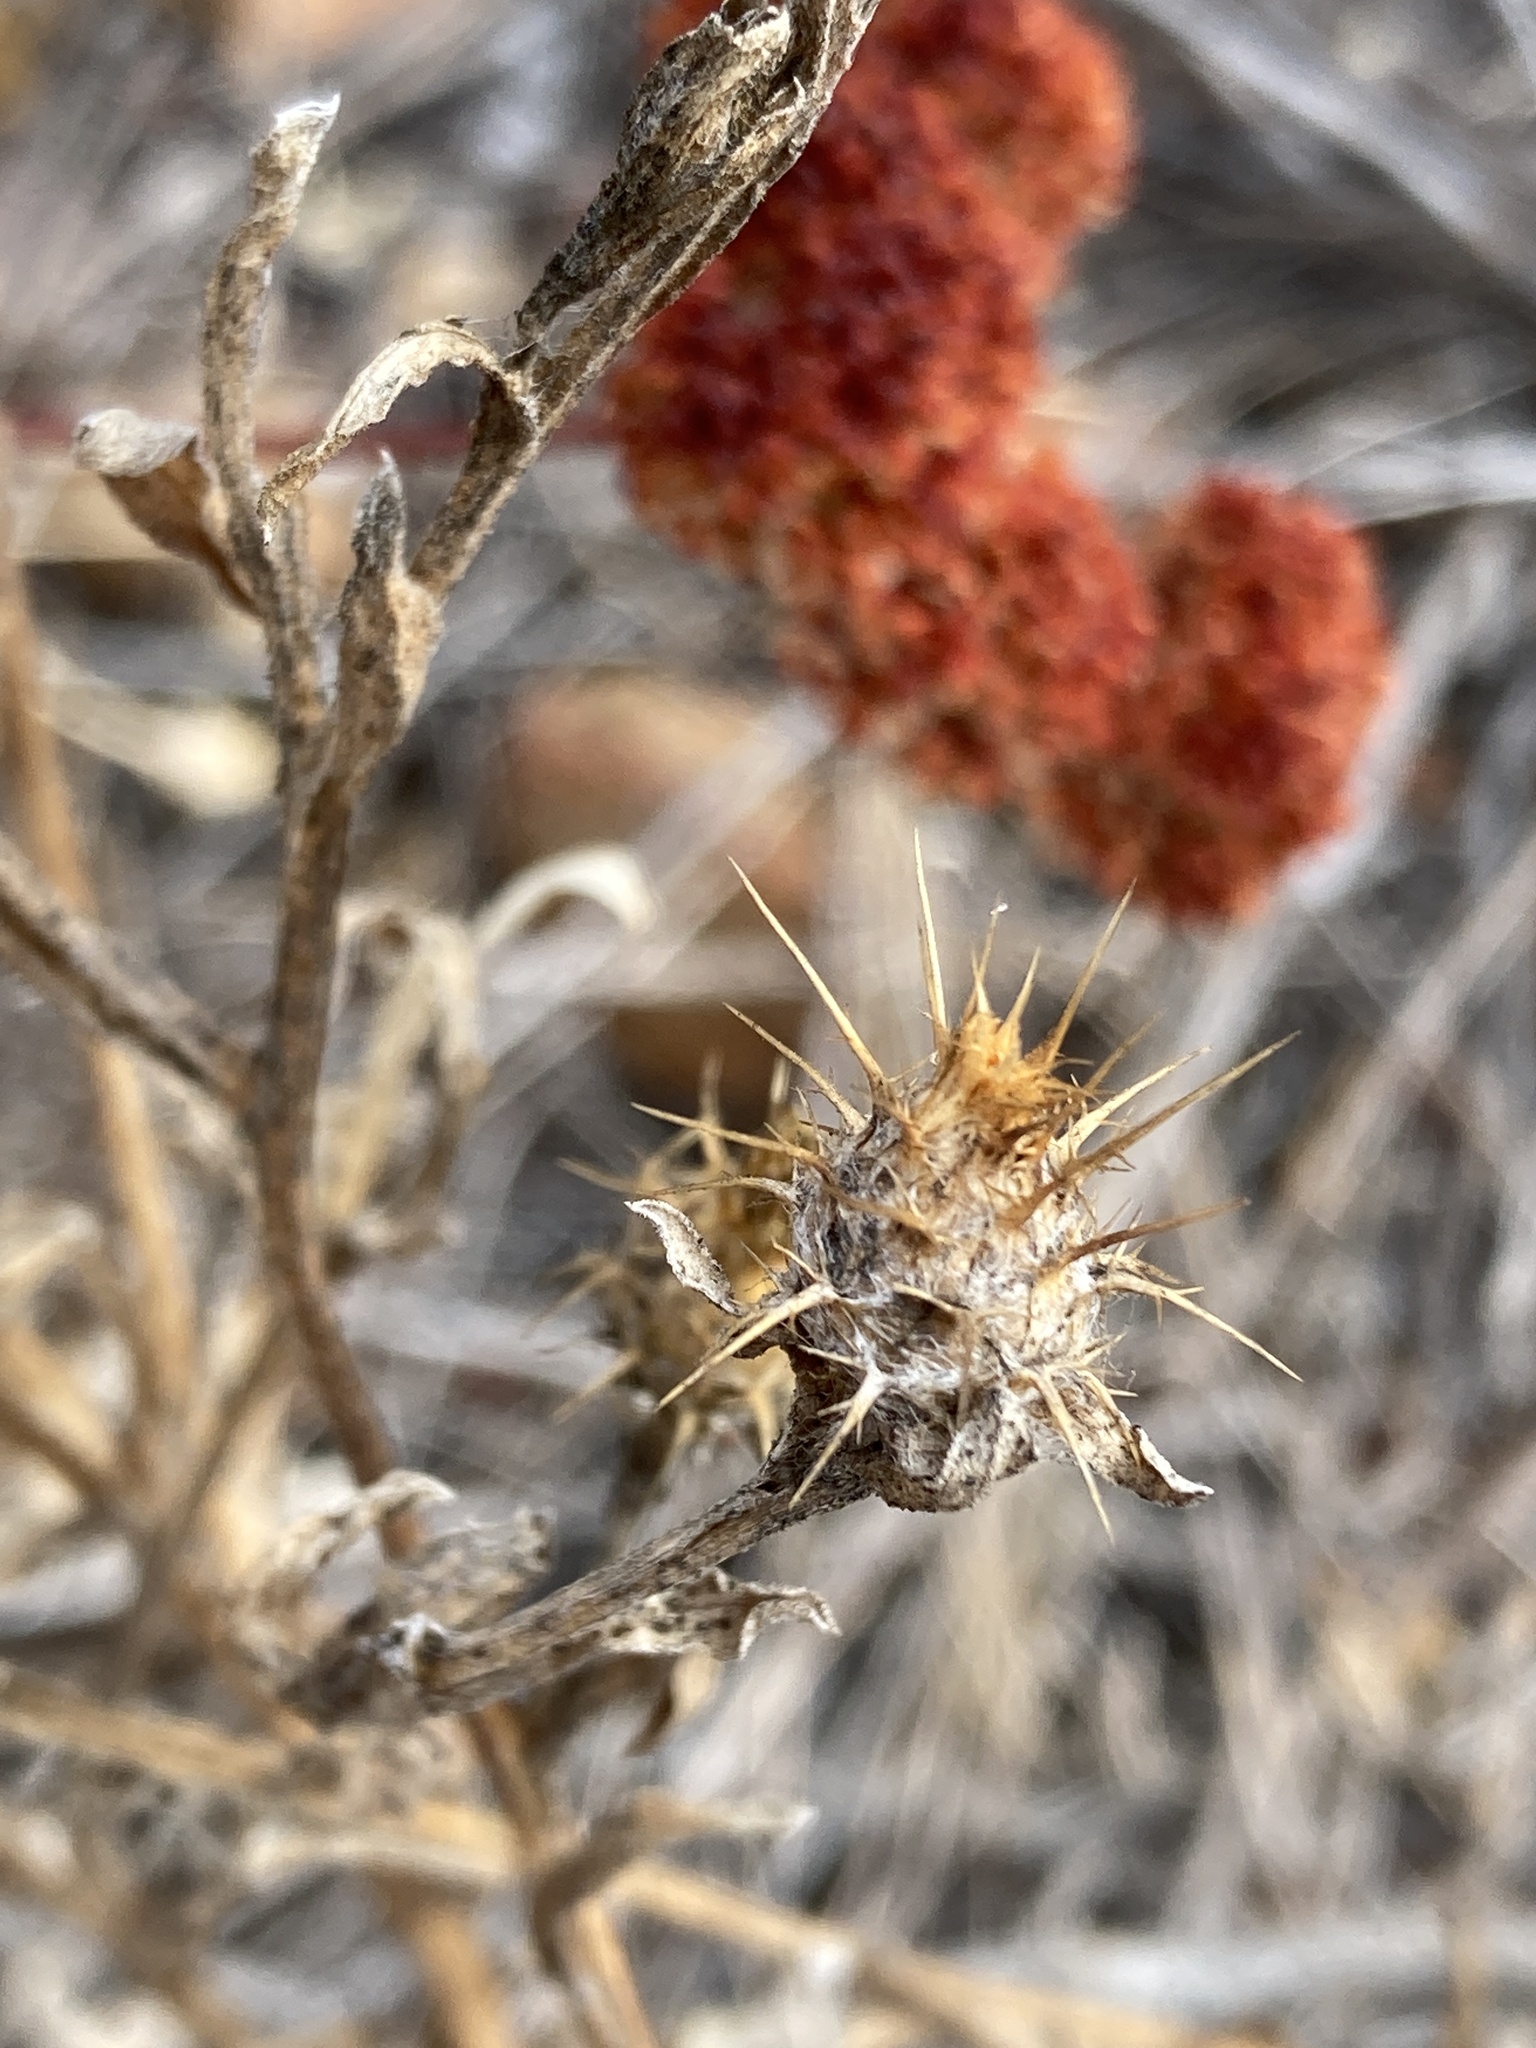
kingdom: Plantae
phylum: Tracheophyta
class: Magnoliopsida
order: Asterales
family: Asteraceae
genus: Centaurea
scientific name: Centaurea melitensis
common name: Maltese star-thistle
